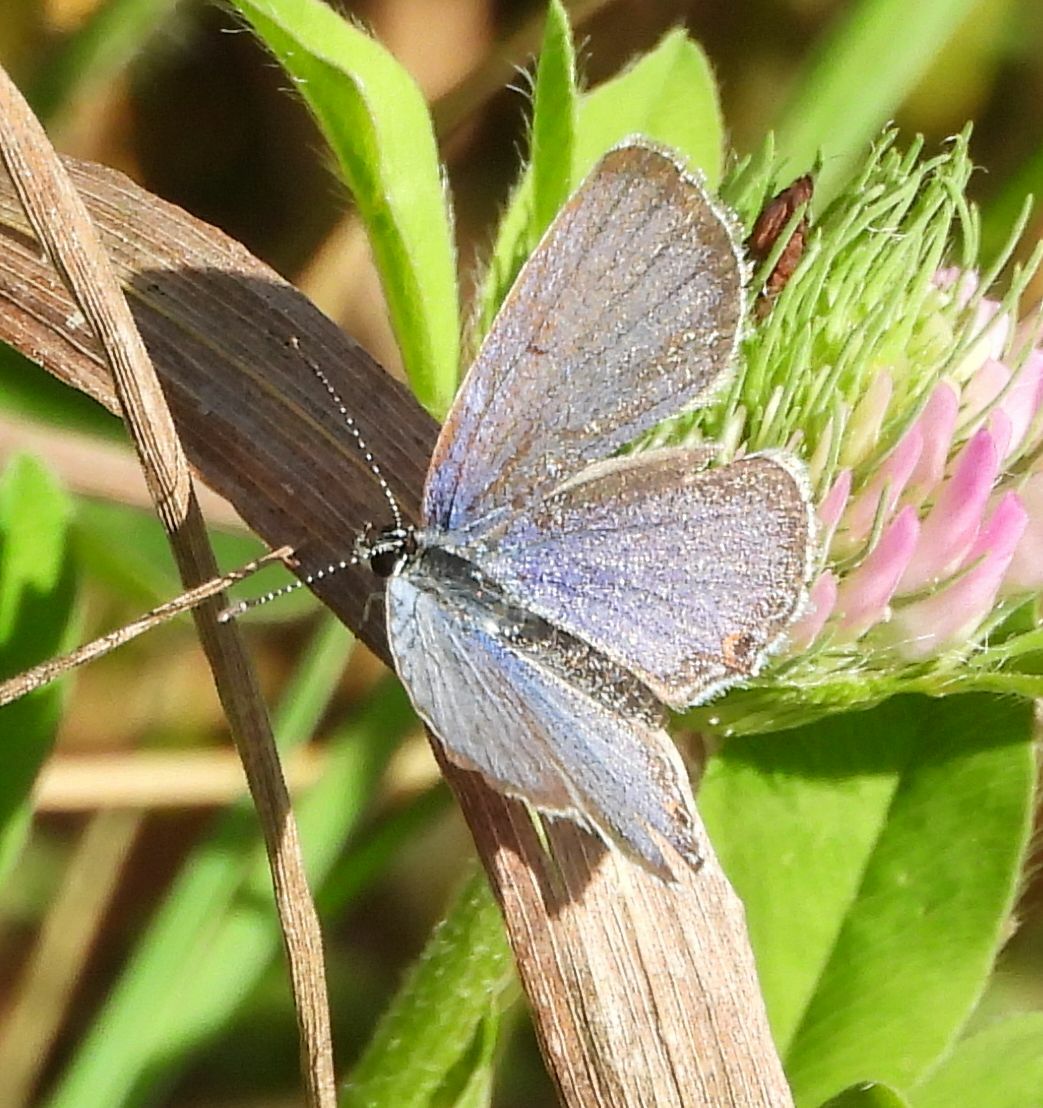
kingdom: Animalia
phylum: Arthropoda
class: Insecta
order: Lepidoptera
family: Lycaenidae
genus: Elkalyce
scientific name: Elkalyce comyntas
